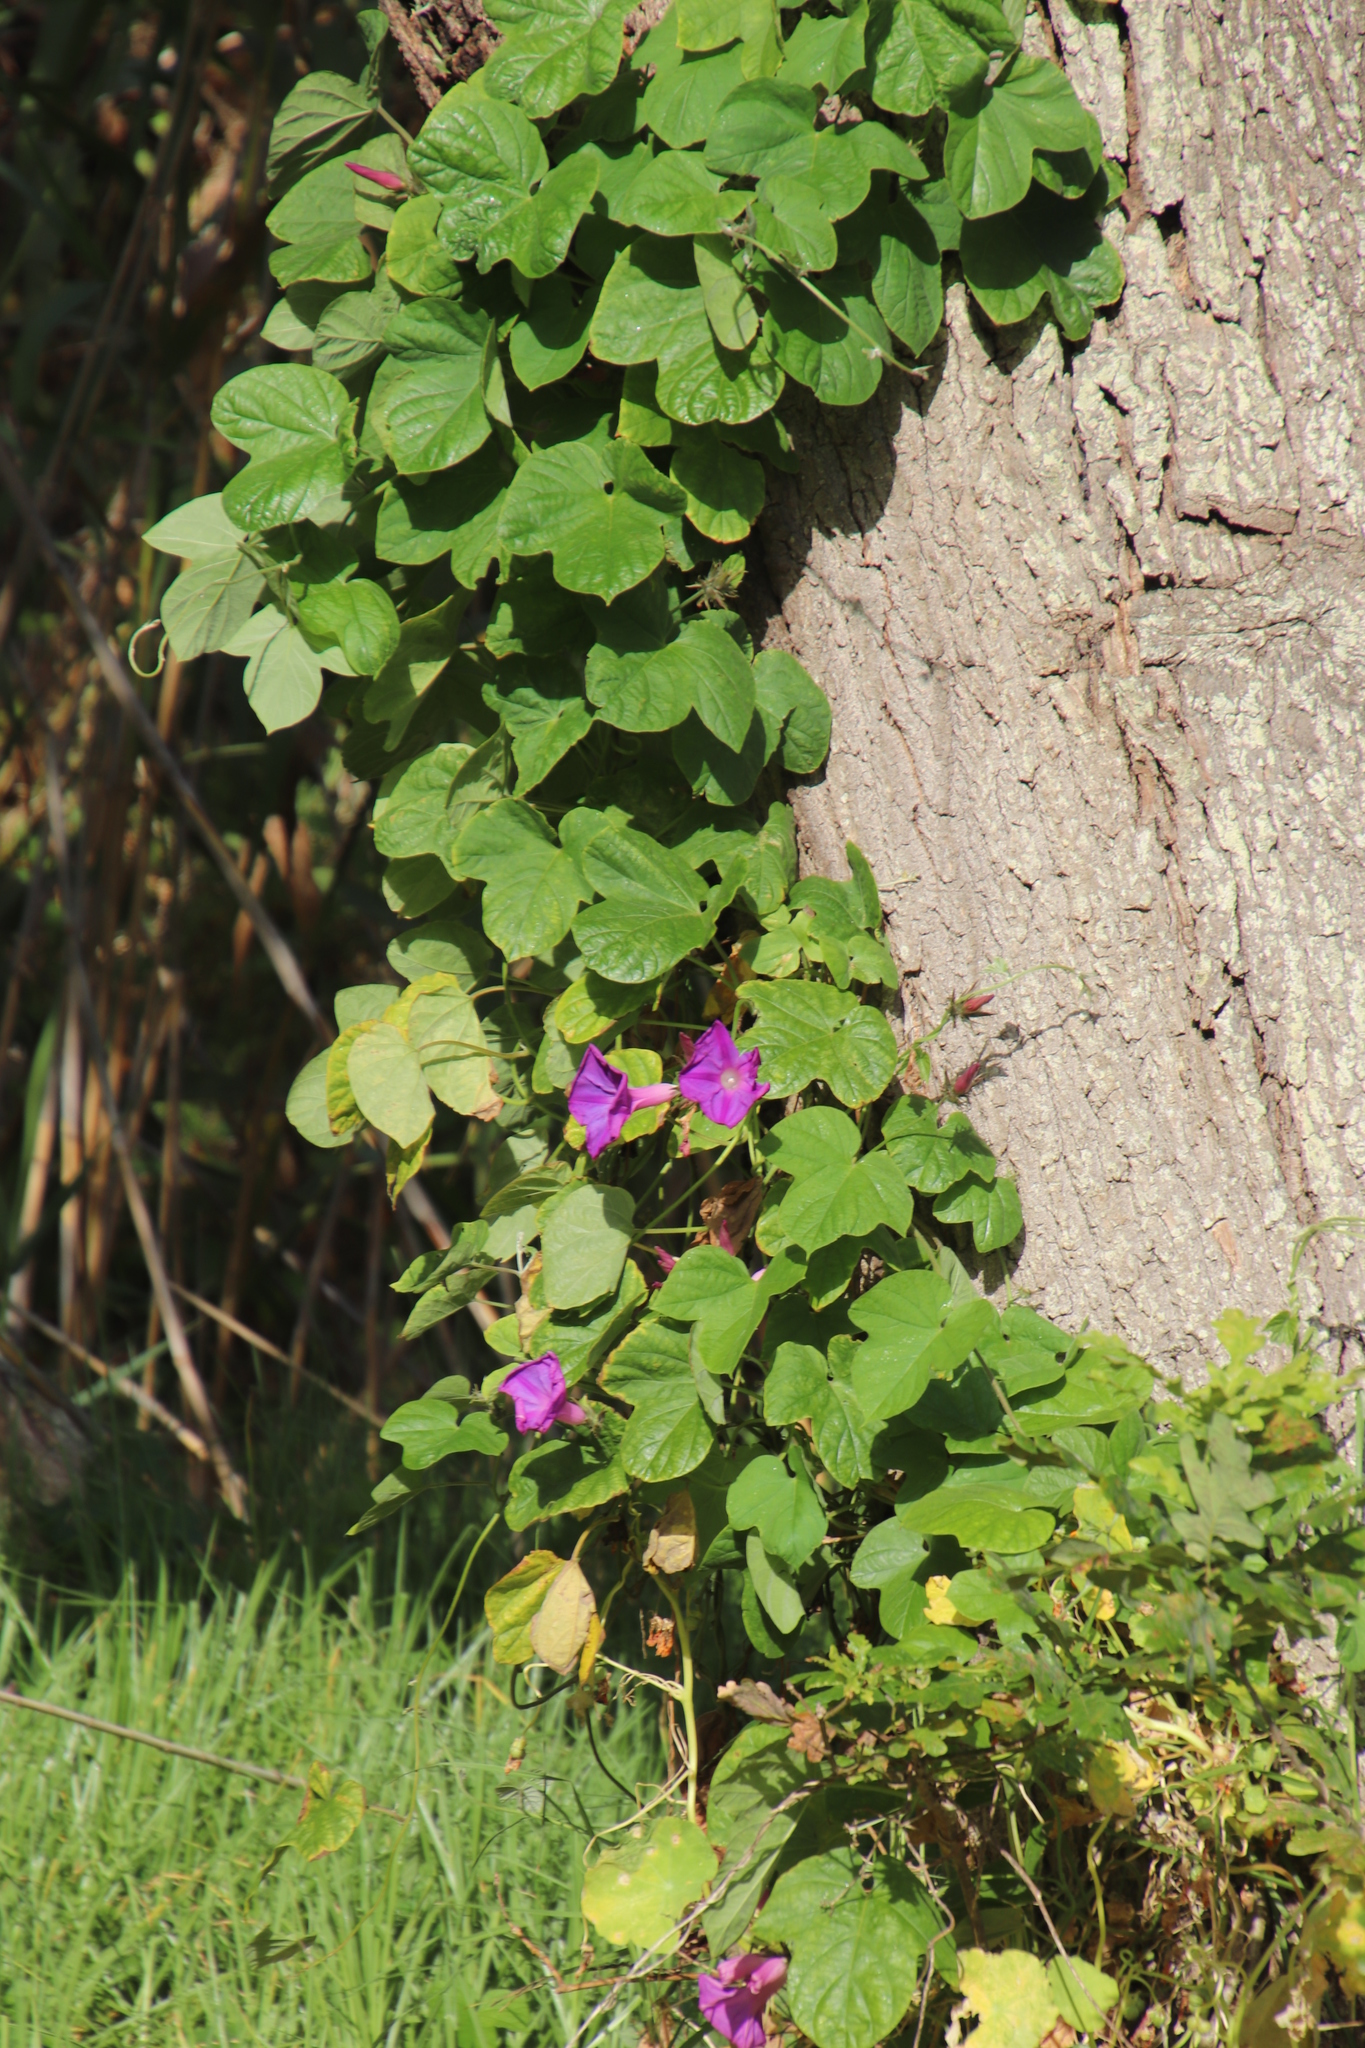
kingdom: Plantae
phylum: Tracheophyta
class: Magnoliopsida
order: Solanales
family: Convolvulaceae
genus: Ipomoea
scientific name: Ipomoea indica
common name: Blue dawnflower
